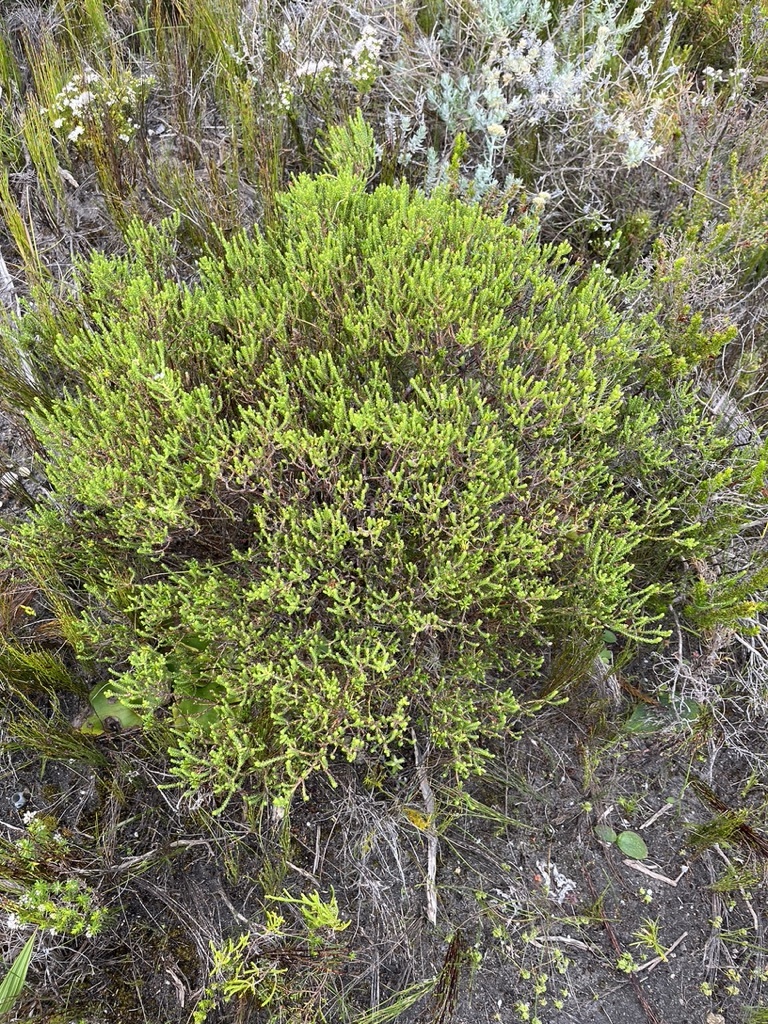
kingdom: Plantae
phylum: Tracheophyta
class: Magnoliopsida
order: Sapindales
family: Rutaceae
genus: Diosma
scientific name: Diosma guthriei
